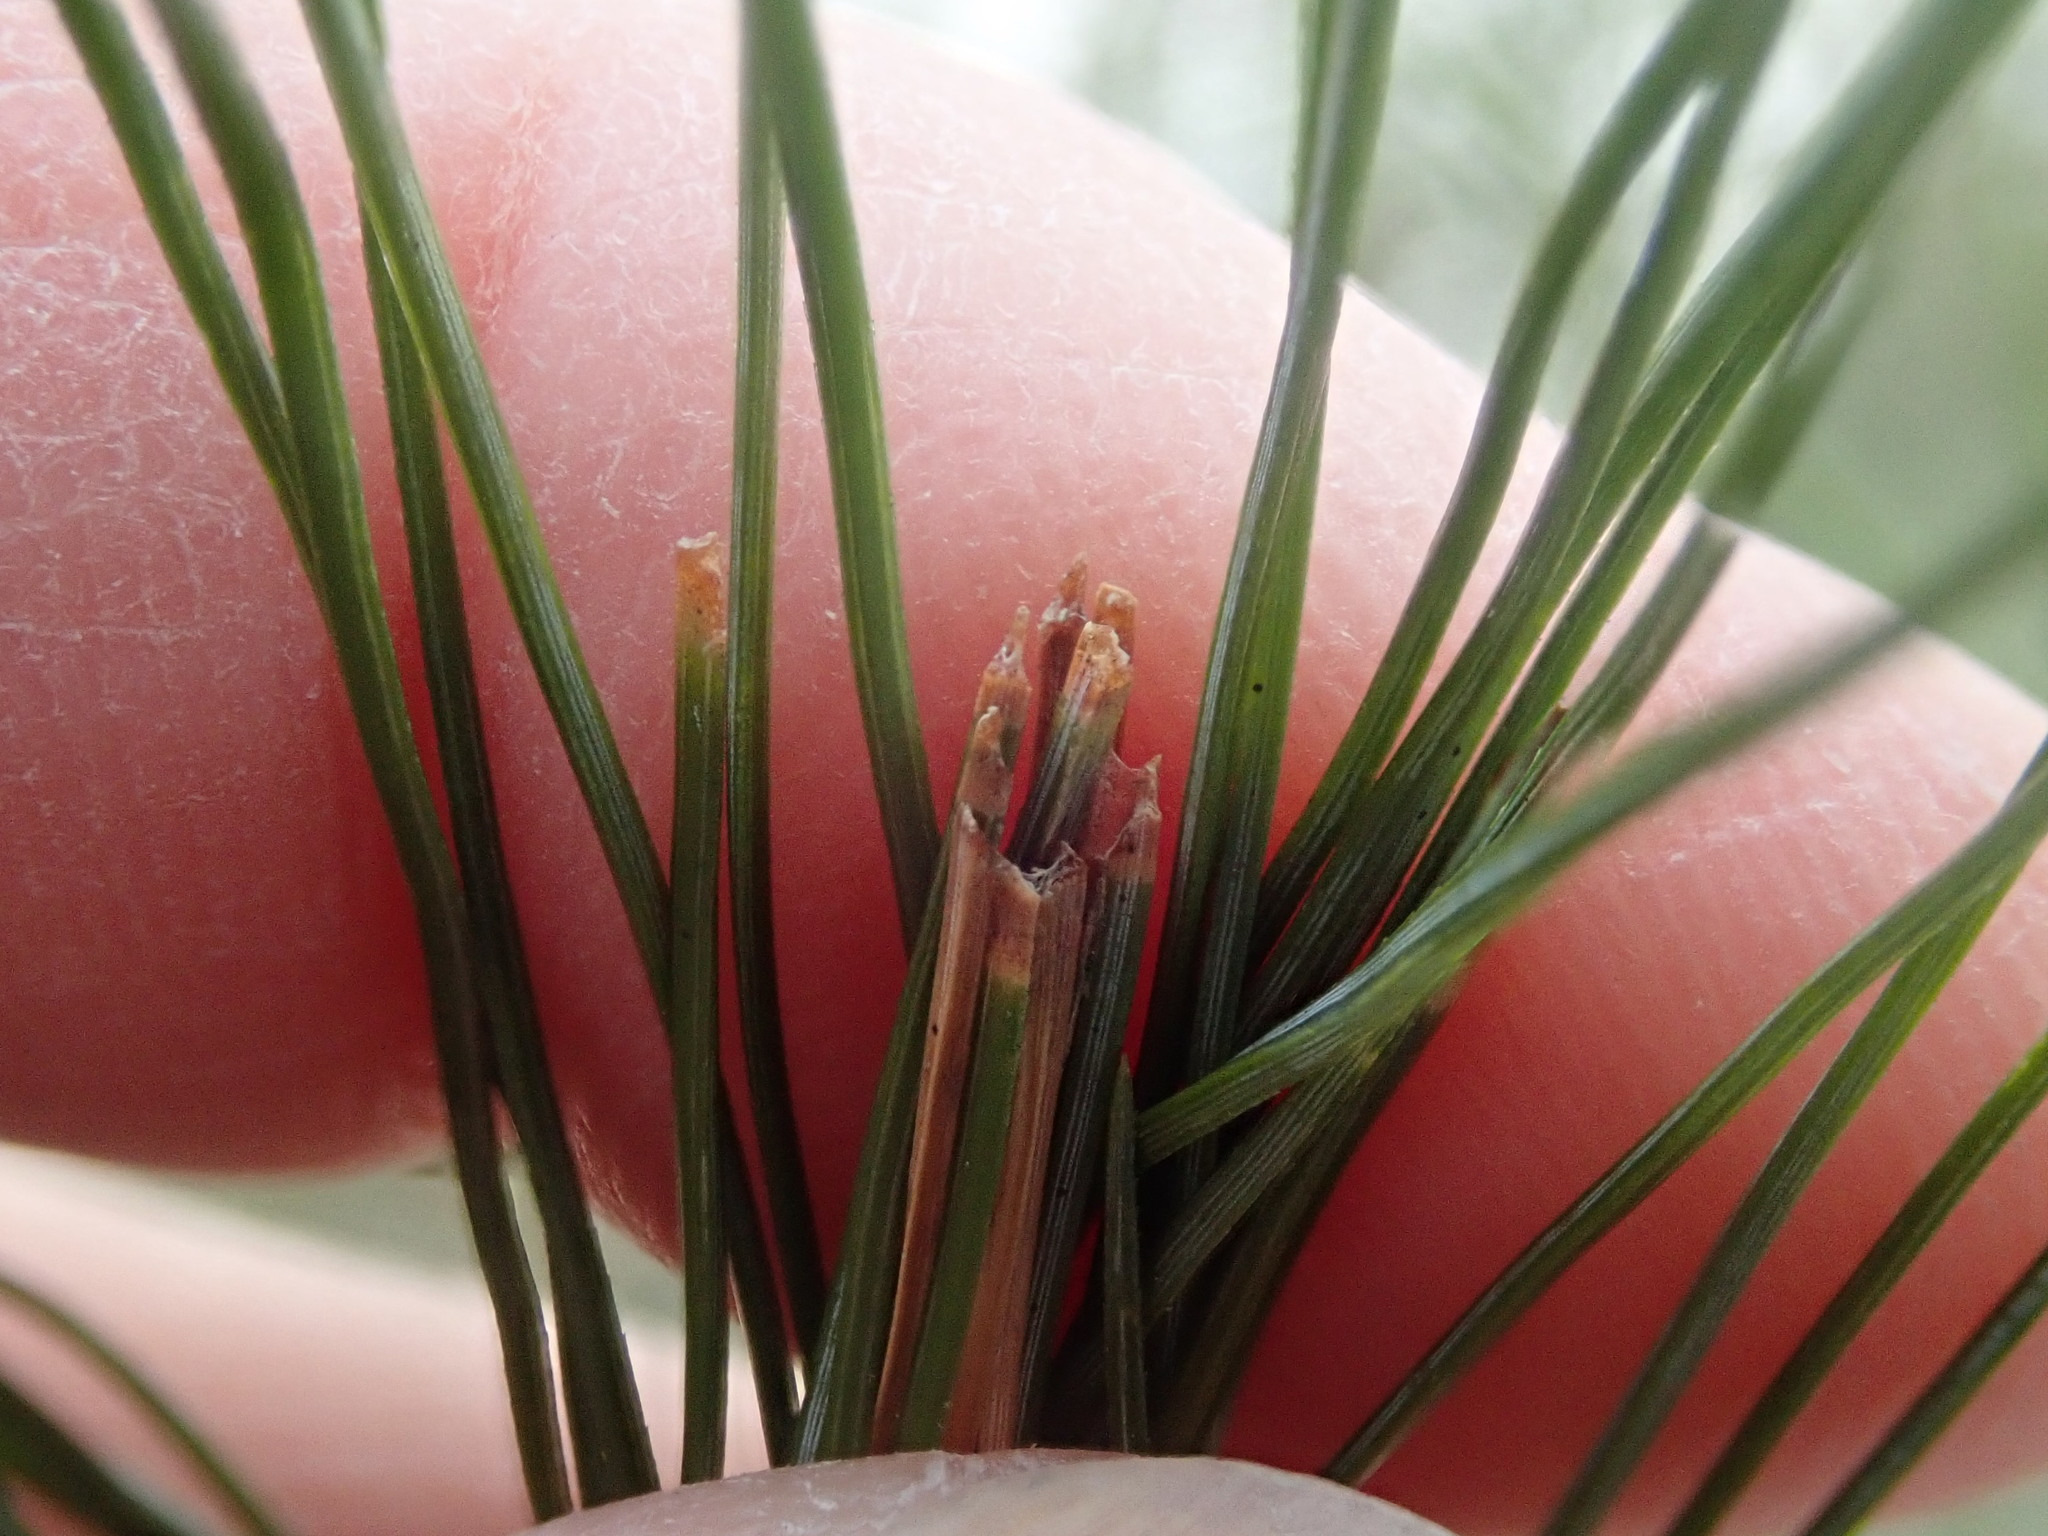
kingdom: Animalia
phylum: Arthropoda
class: Insecta
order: Lepidoptera
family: Tortricidae
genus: Argyrotaenia
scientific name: Argyrotaenia pinatubana
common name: Pine tube moth
